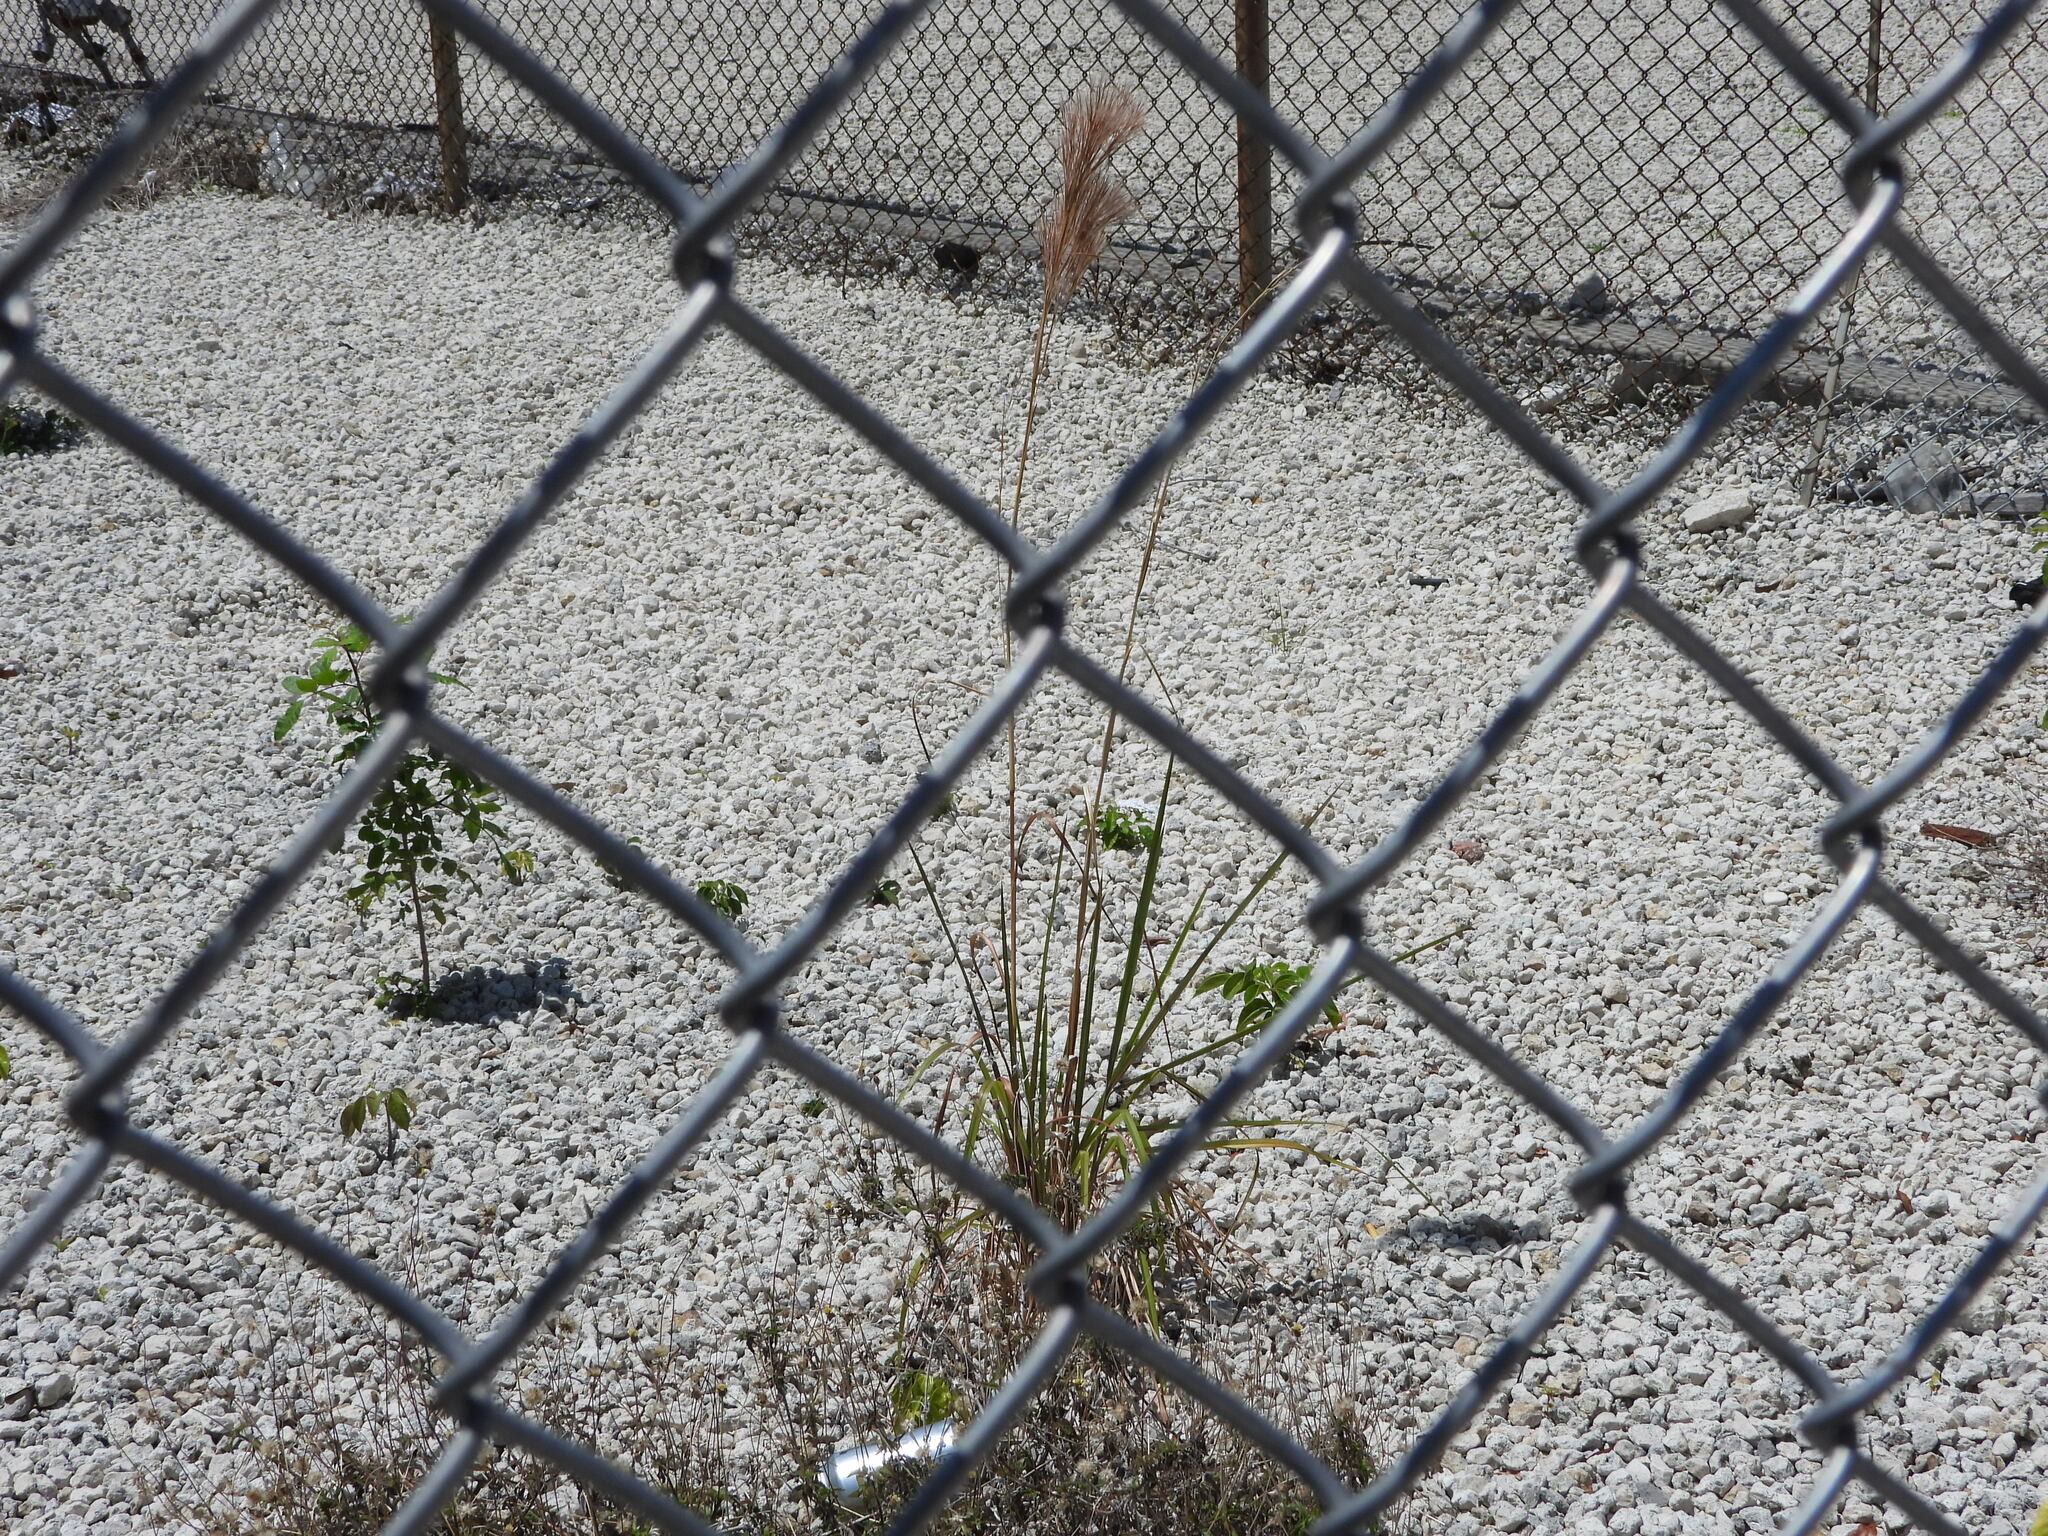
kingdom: Plantae
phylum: Tracheophyta
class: Liliopsida
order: Poales
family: Poaceae
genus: Andropogon
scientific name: Andropogon tenuispatheus
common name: Bushy bluestem
